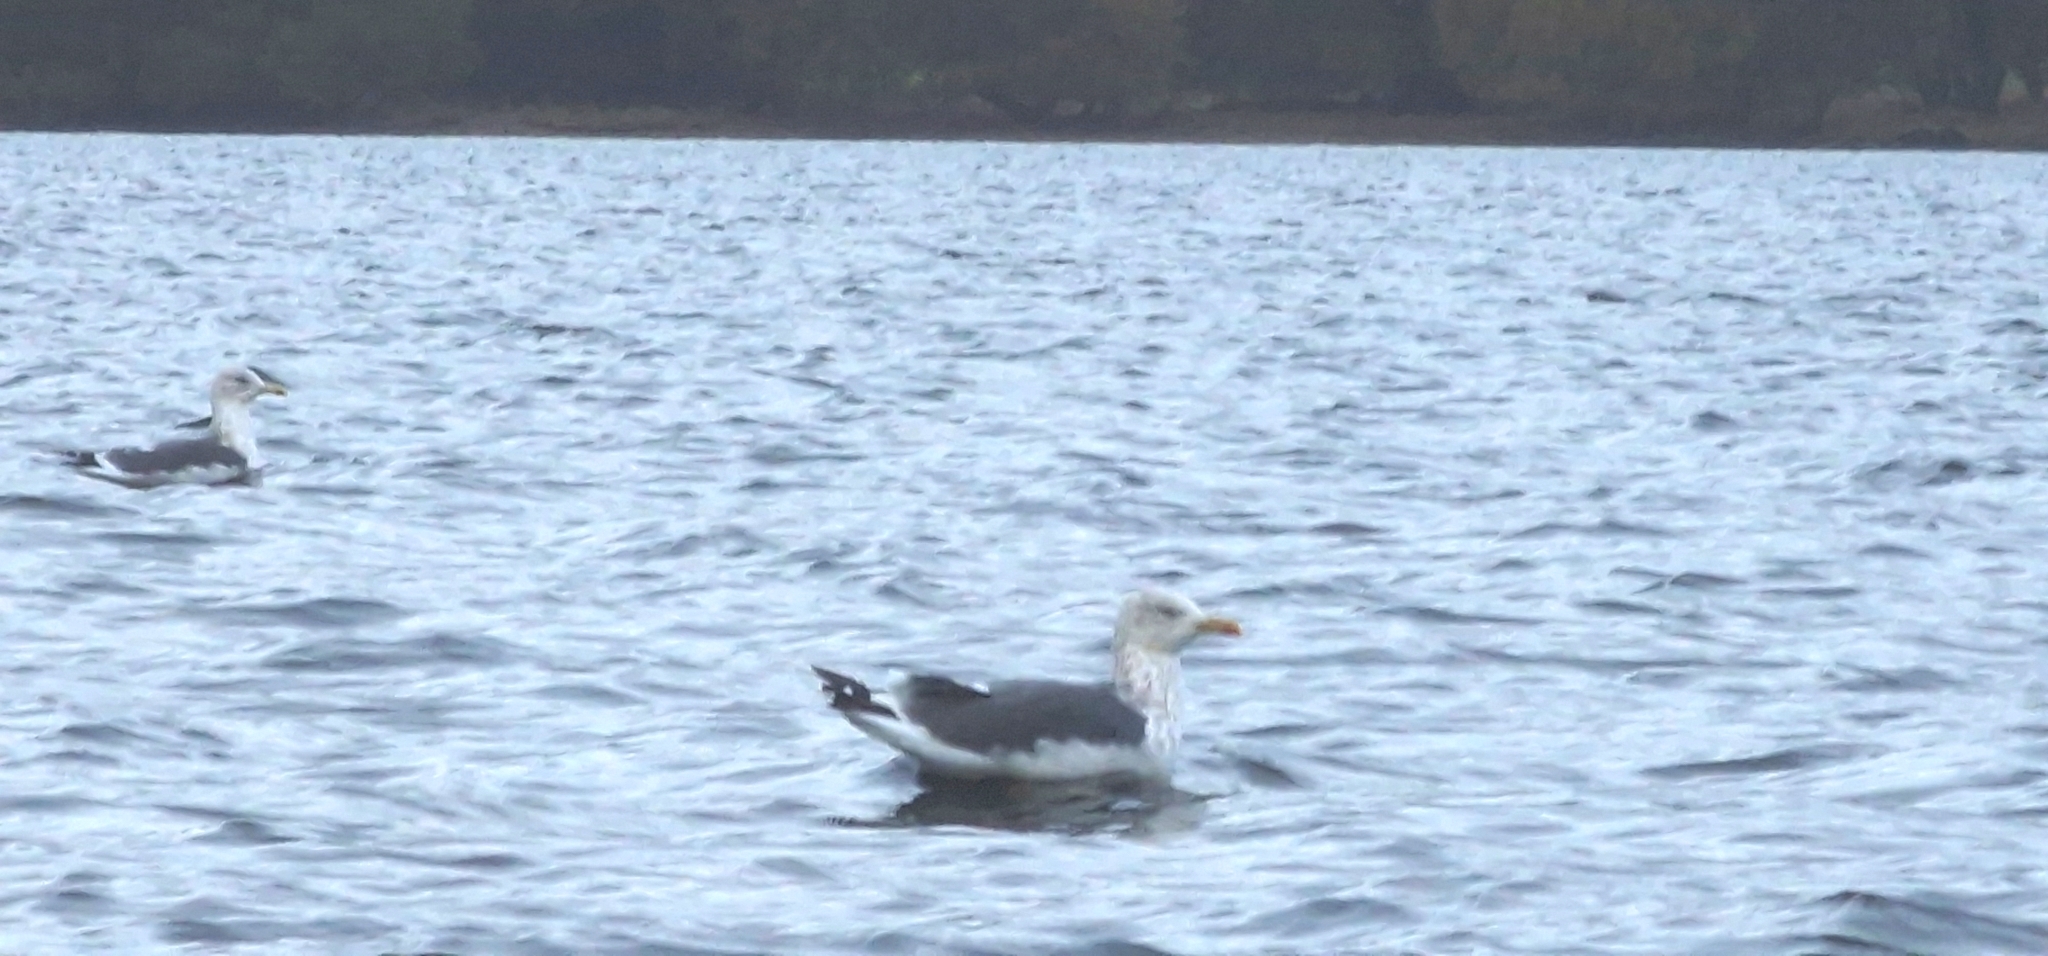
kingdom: Animalia
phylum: Chordata
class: Aves
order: Charadriiformes
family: Laridae
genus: Larus
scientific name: Larus fuscus
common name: Lesser black-backed gull
